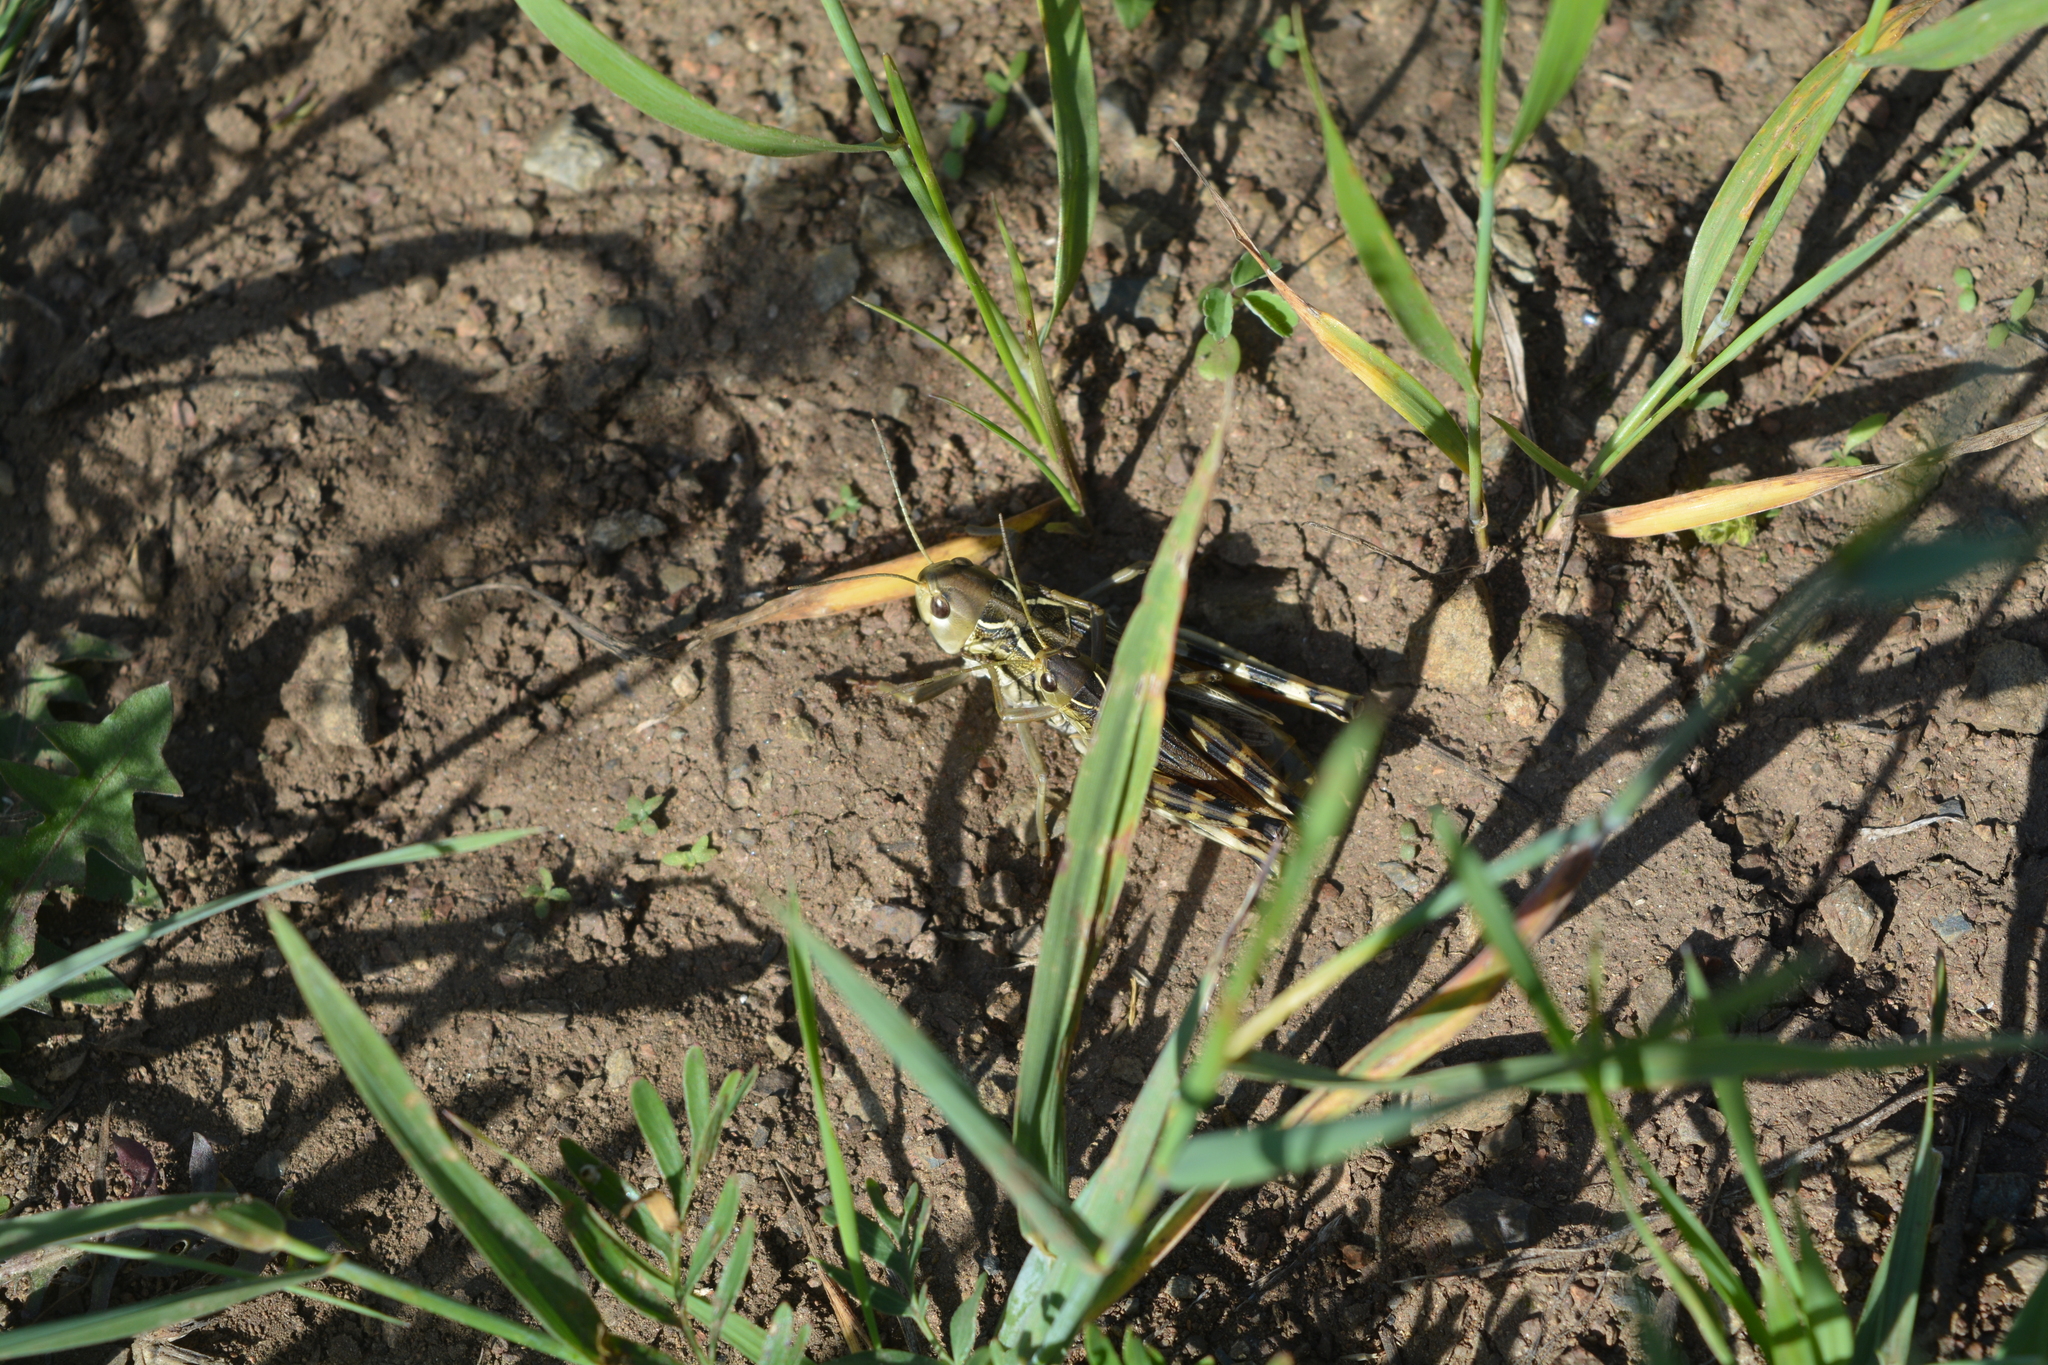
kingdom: Animalia
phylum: Arthropoda
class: Insecta
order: Orthoptera
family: Acrididae
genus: Arcyptera
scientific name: Arcyptera meridionalis
